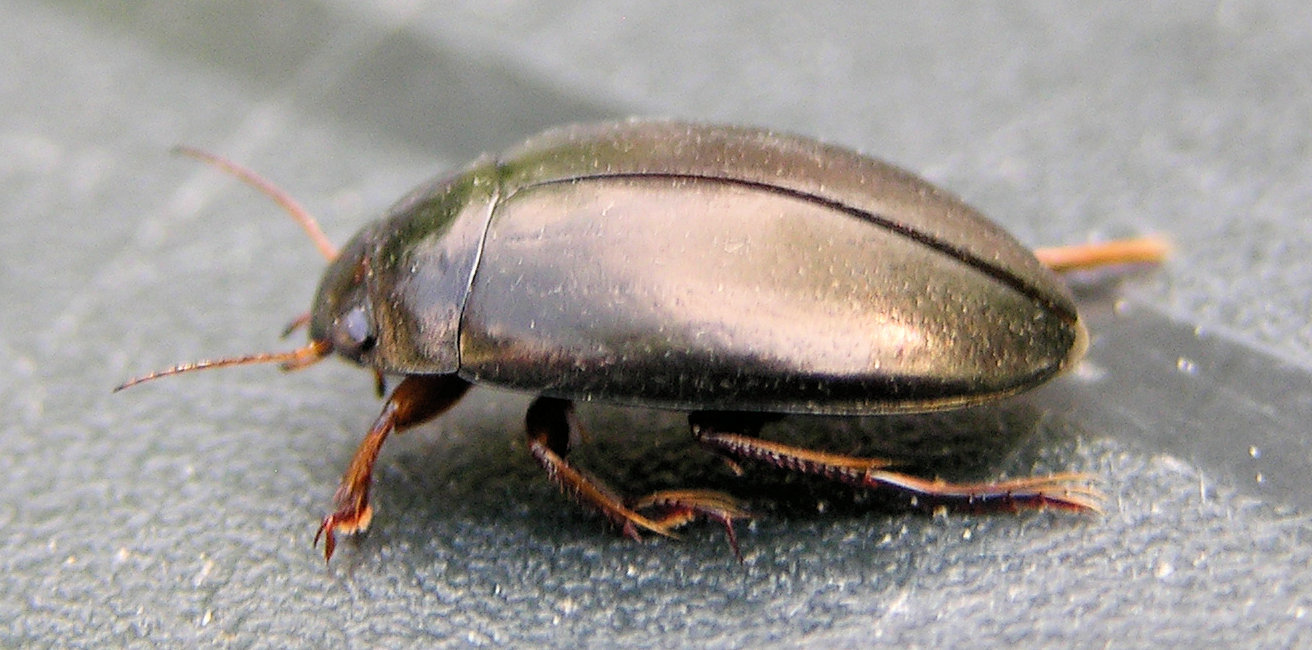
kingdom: Animalia
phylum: Arthropoda
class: Insecta
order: Coleoptera
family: Dytiscidae
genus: Agabus
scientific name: Agabus bipustulatus
